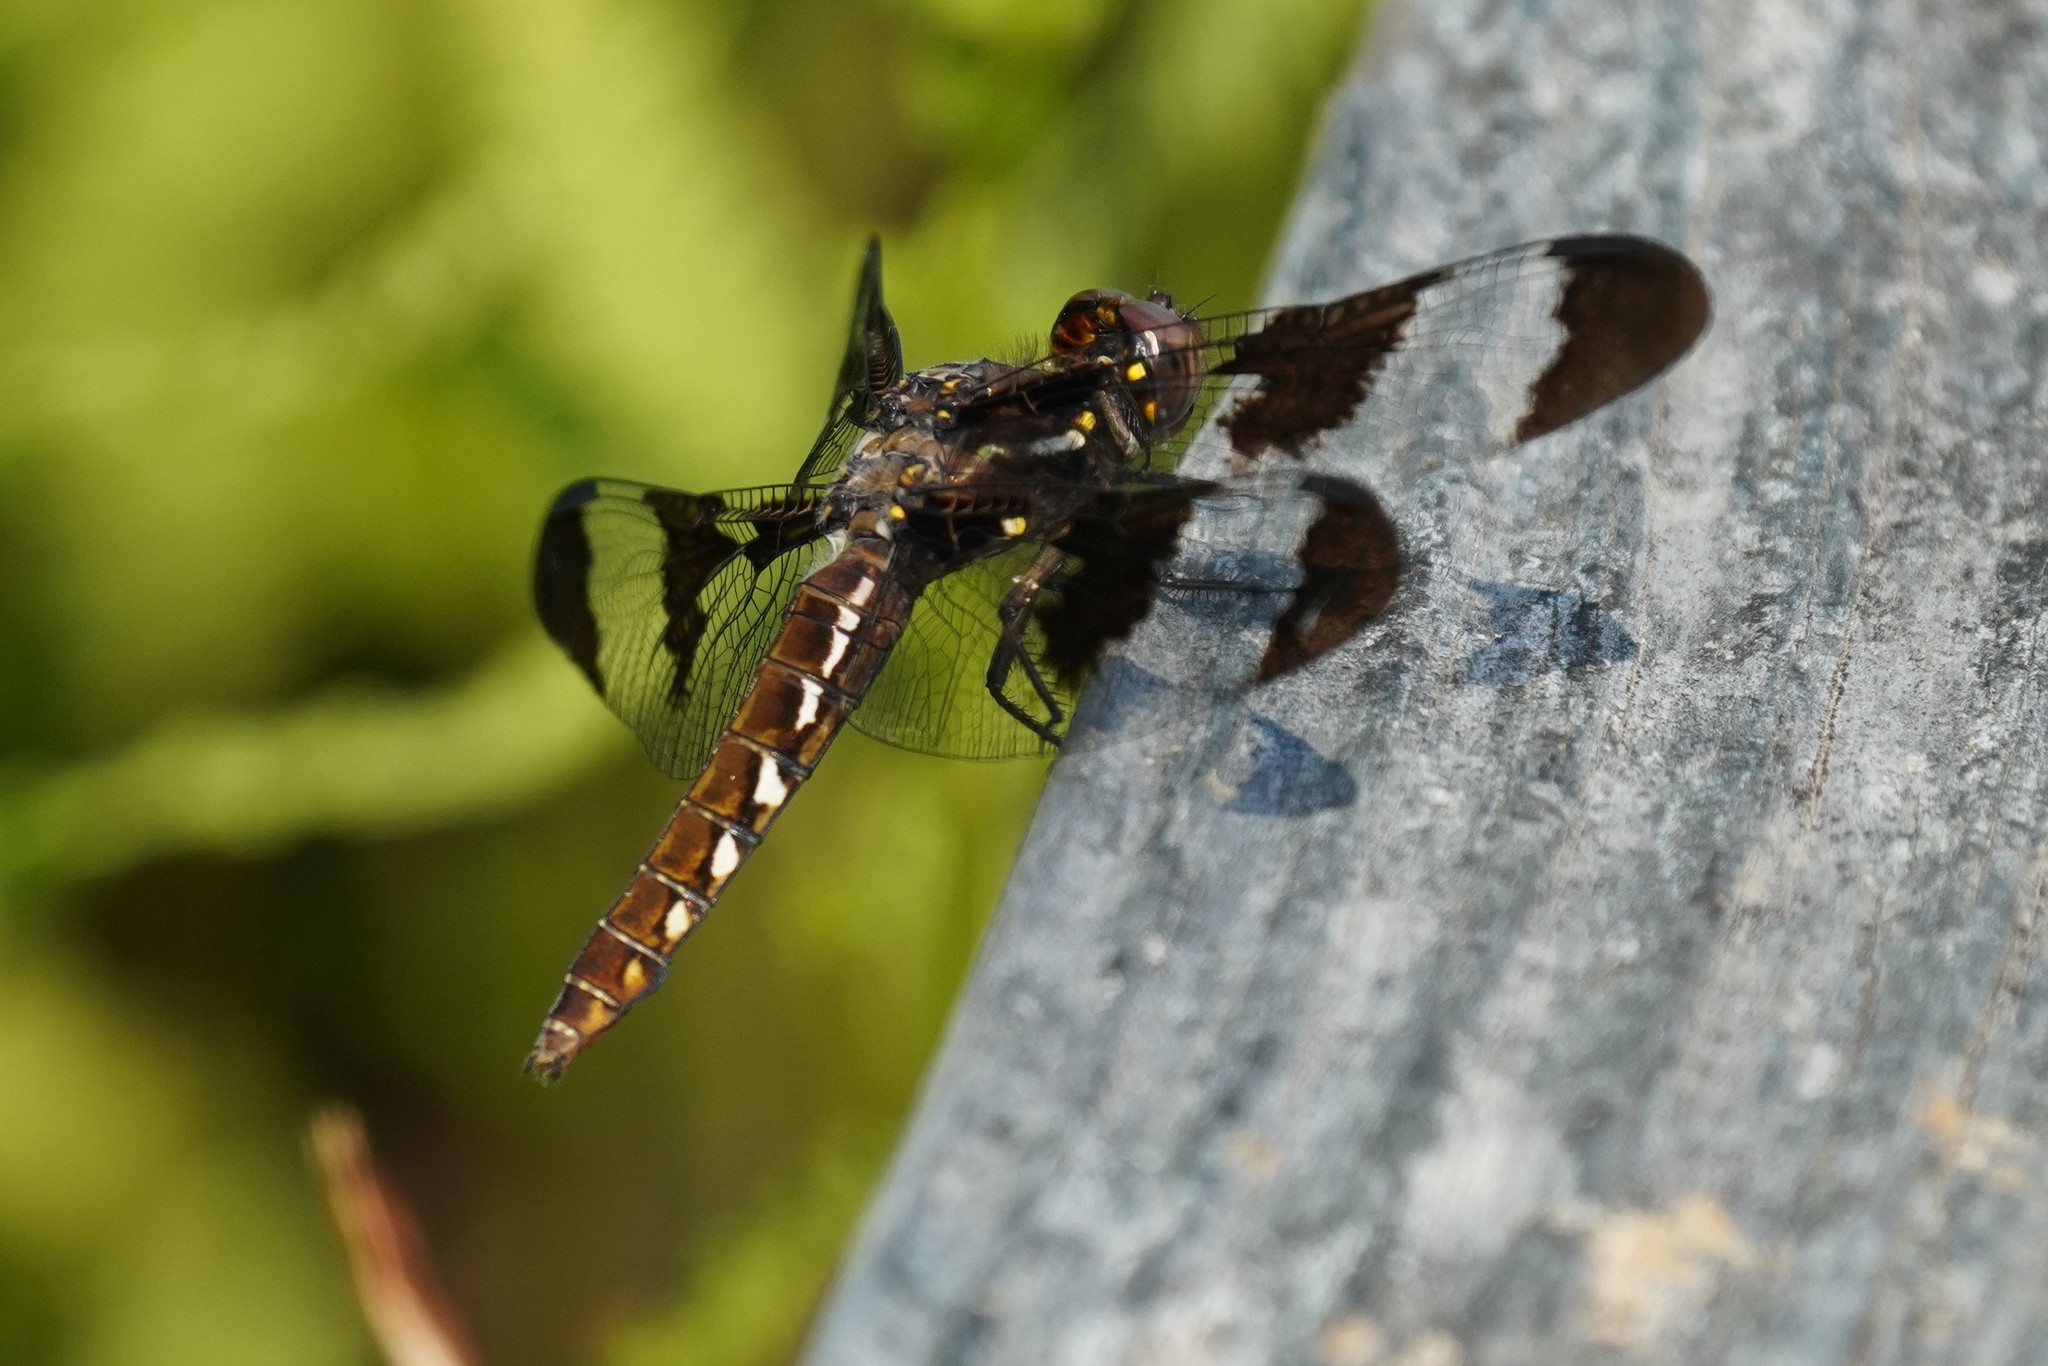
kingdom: Animalia
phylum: Arthropoda
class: Insecta
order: Odonata
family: Libellulidae
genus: Plathemis
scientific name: Plathemis lydia
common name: Common whitetail
